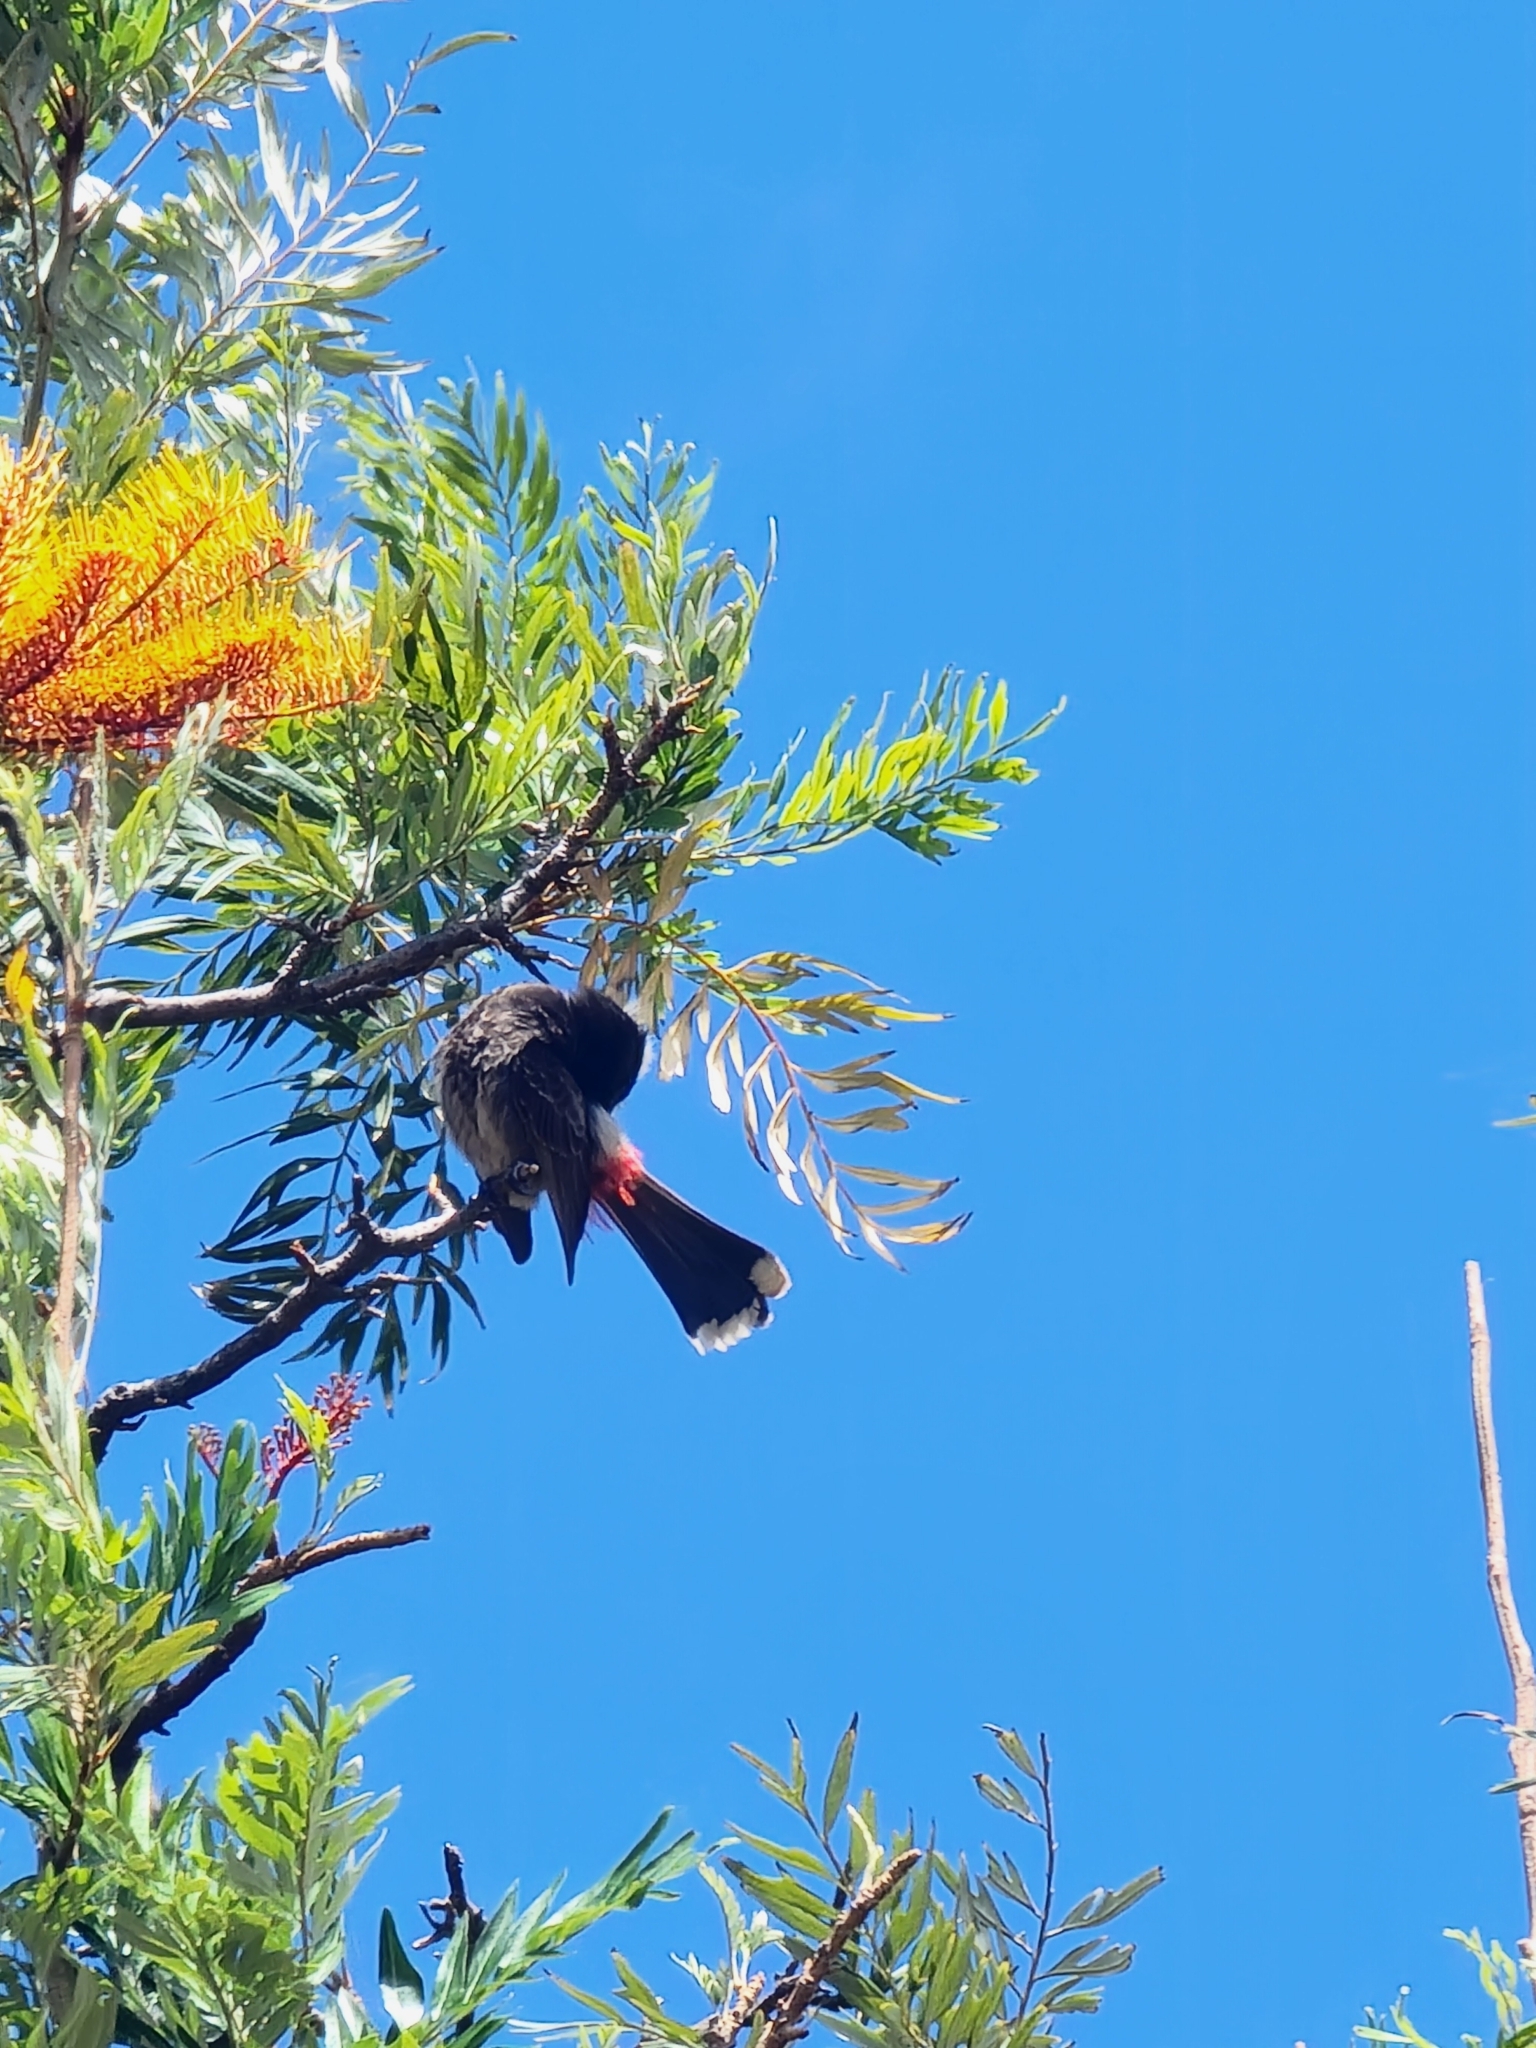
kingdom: Animalia
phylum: Chordata
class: Aves
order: Passeriformes
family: Pycnonotidae
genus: Pycnonotus
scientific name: Pycnonotus cafer
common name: Red-vented bulbul
